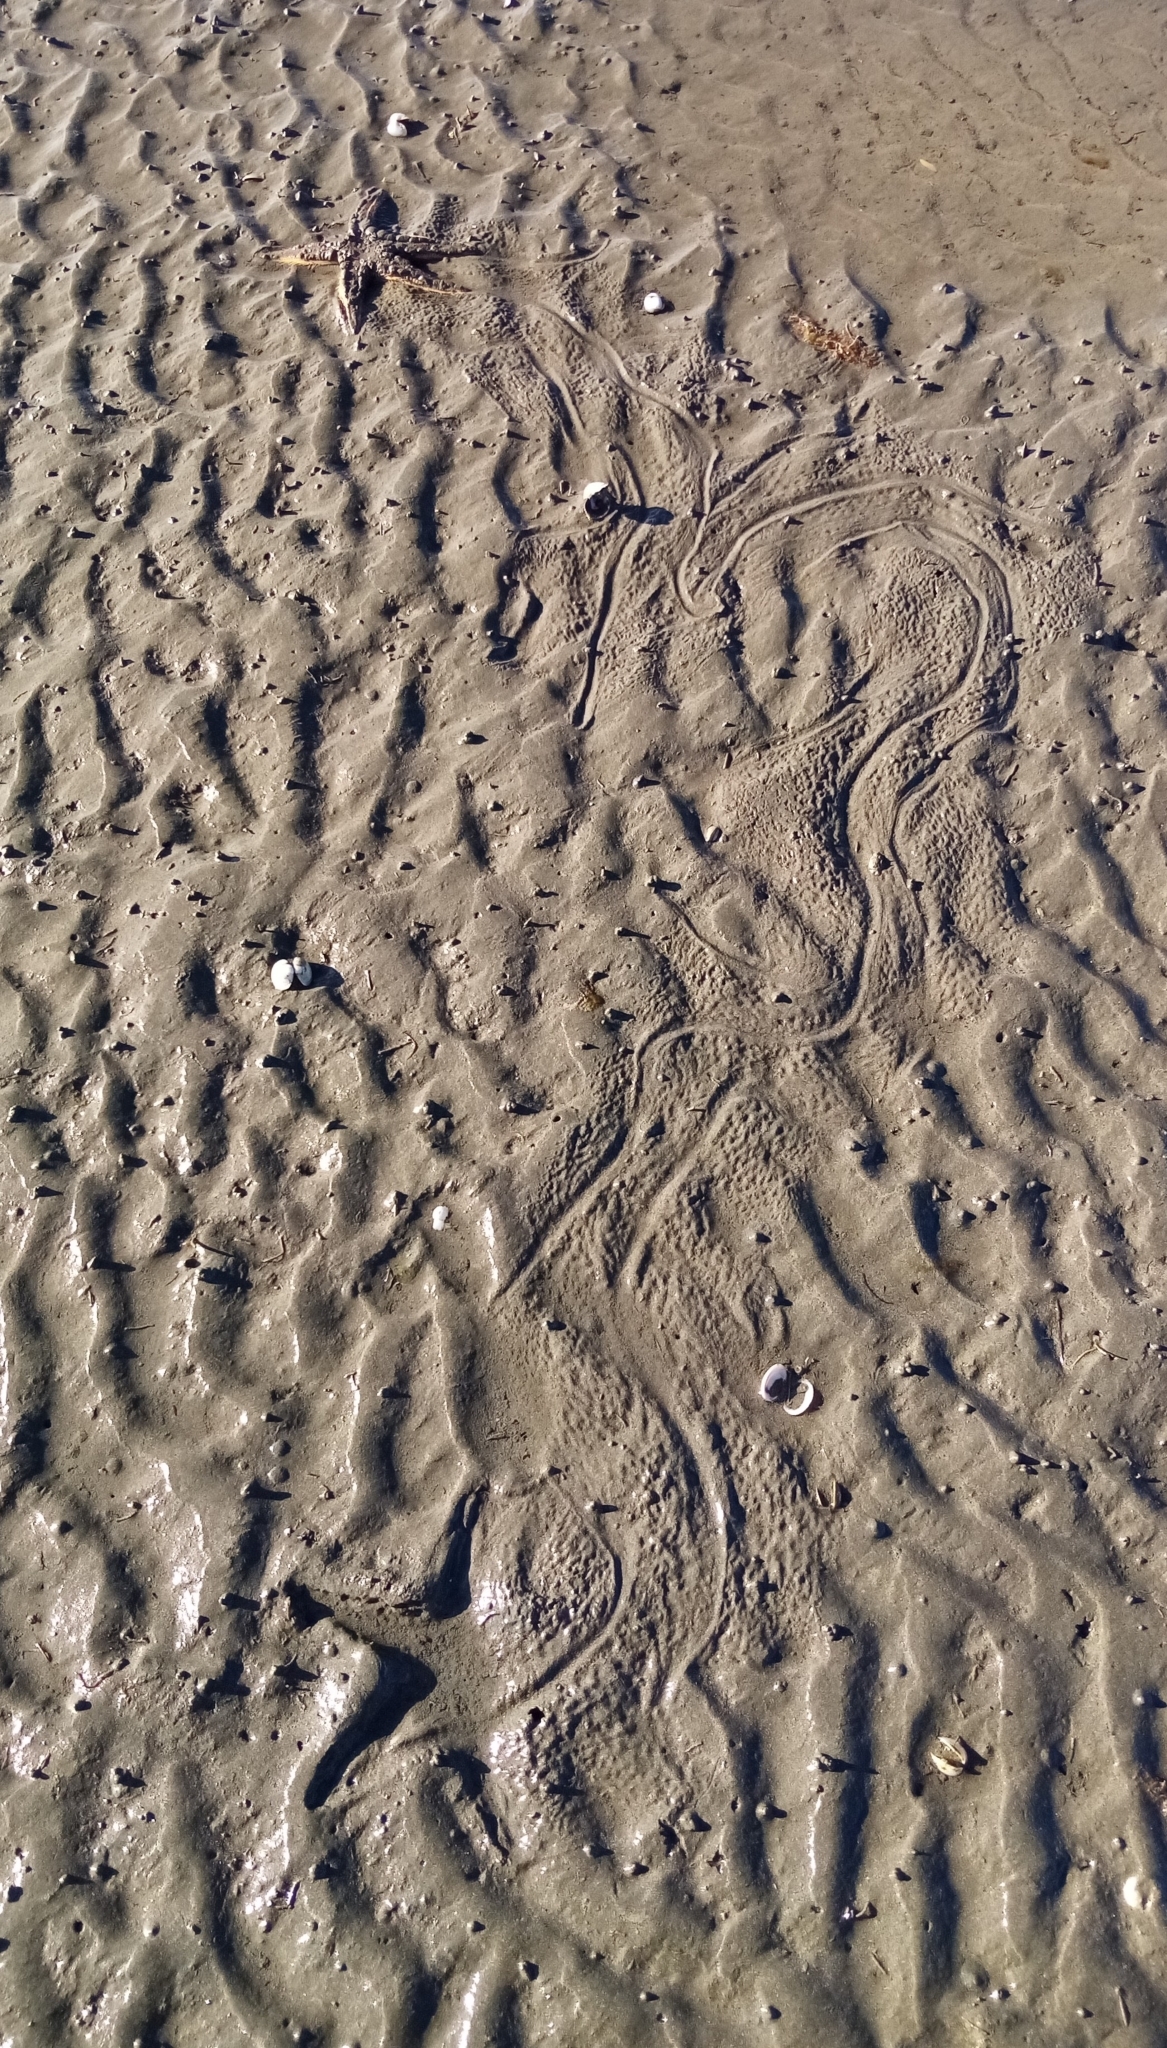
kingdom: Animalia
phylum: Echinodermata
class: Asteroidea
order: Paxillosida
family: Astropectinidae
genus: Astropecten
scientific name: Astropecten polyacanthus
